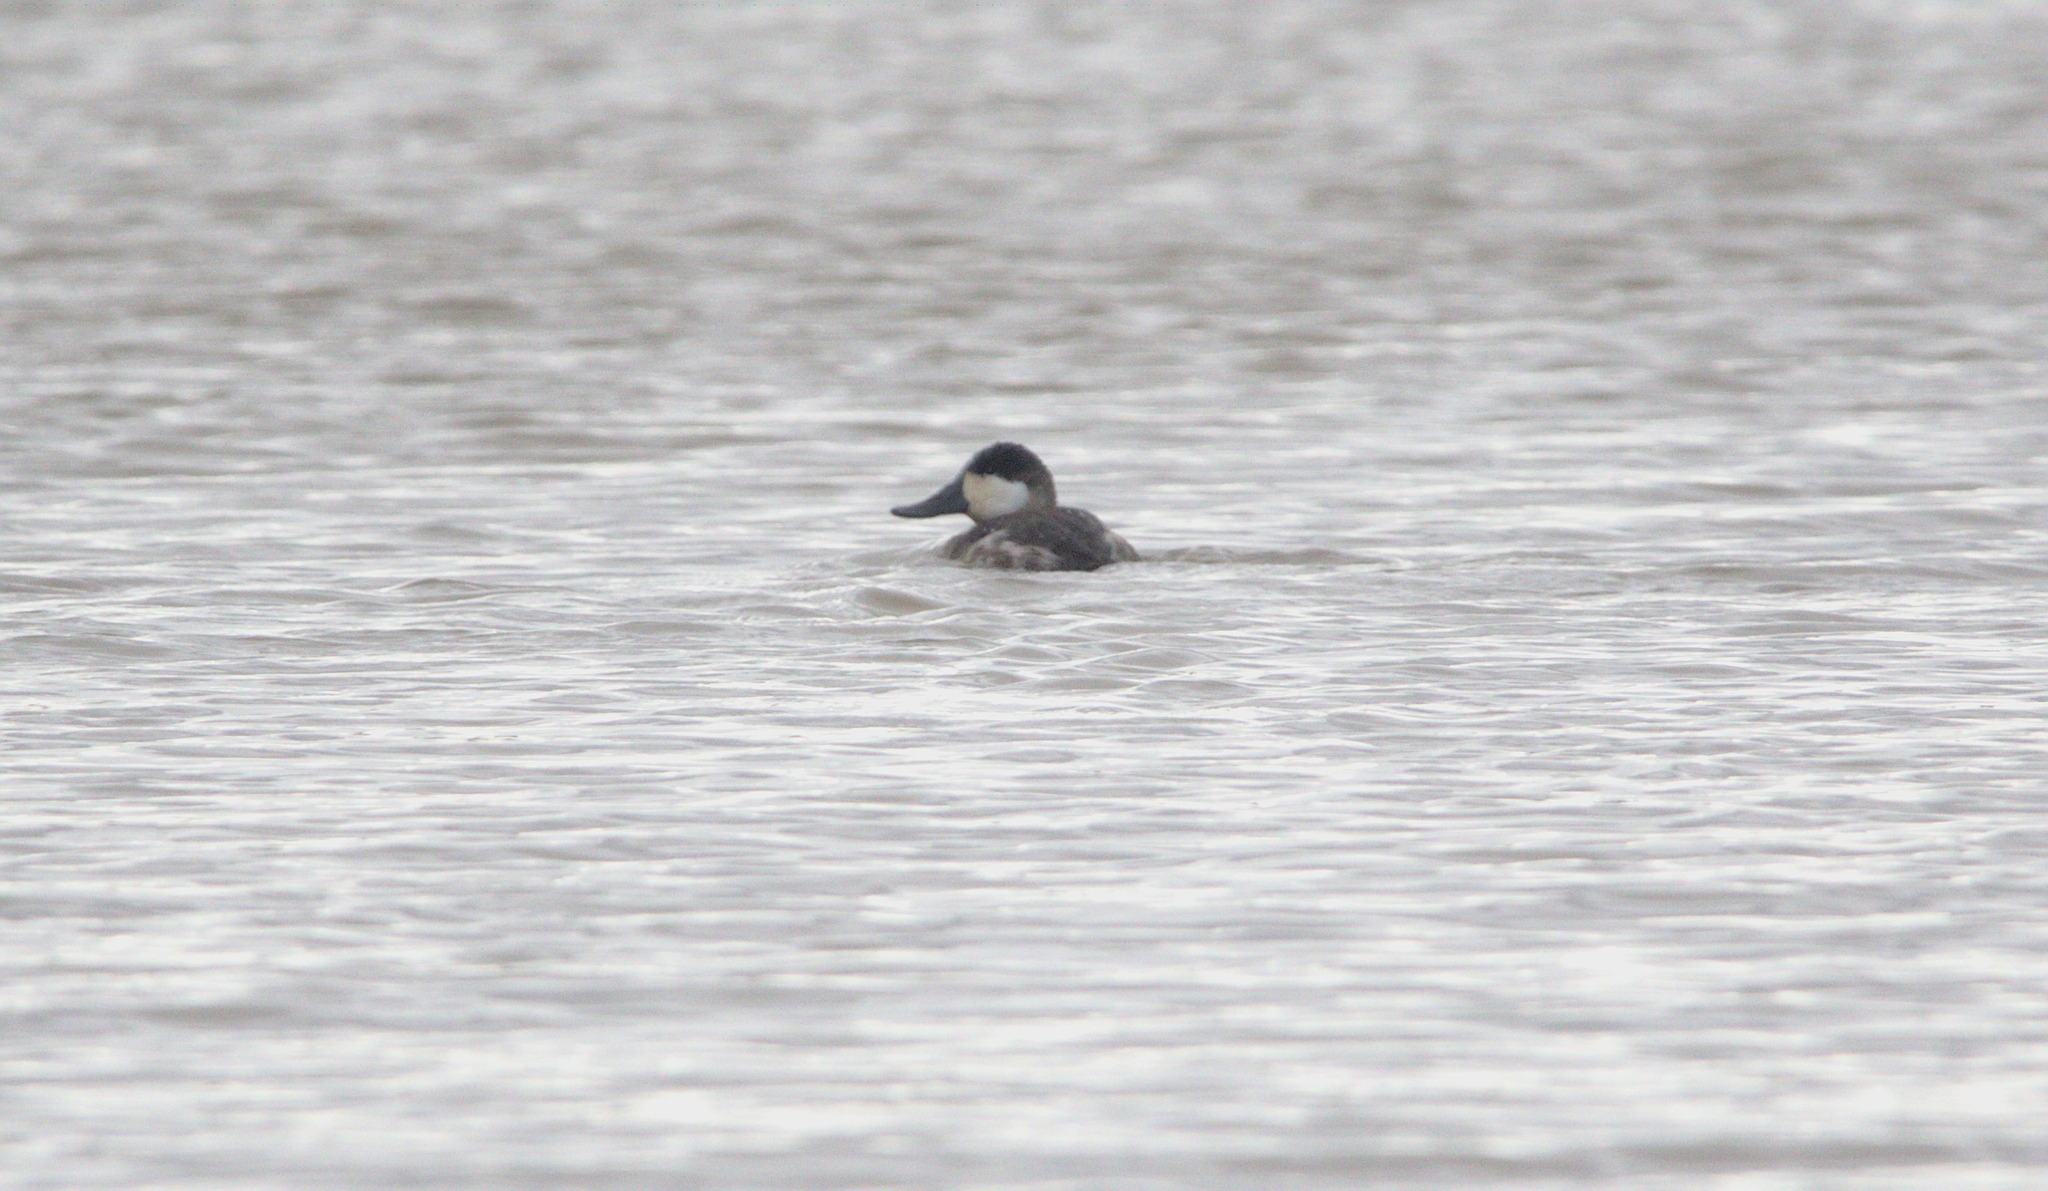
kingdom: Animalia
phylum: Chordata
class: Aves
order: Anseriformes
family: Anatidae
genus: Oxyura
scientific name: Oxyura jamaicensis
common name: Ruddy duck
